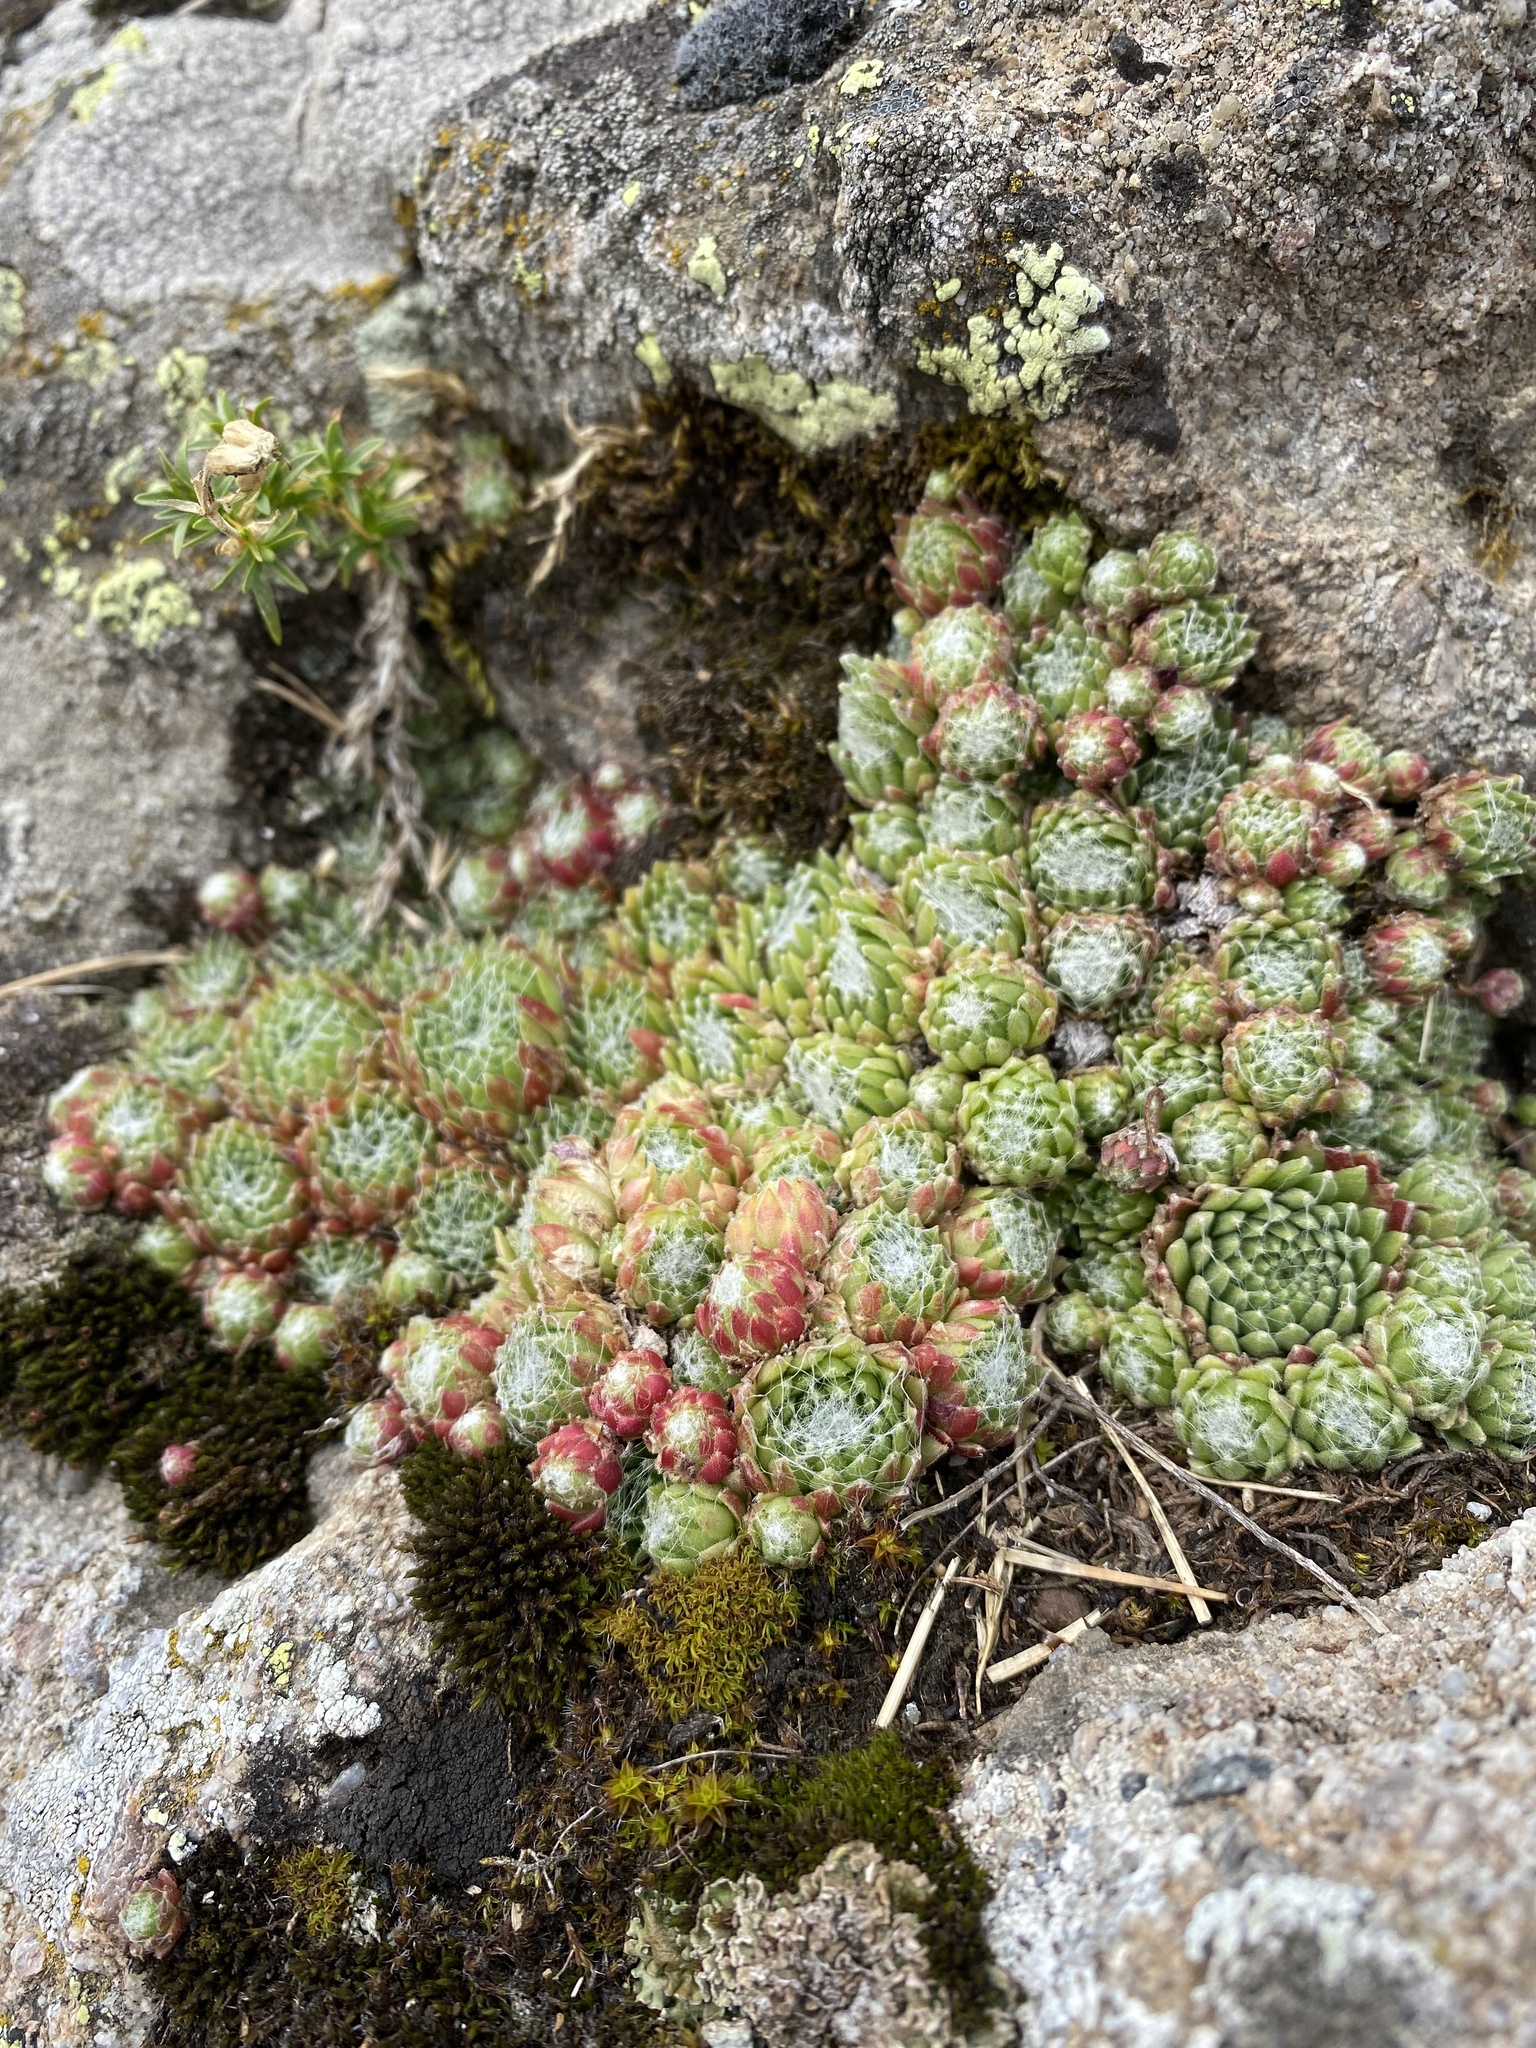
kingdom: Plantae
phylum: Tracheophyta
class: Magnoliopsida
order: Saxifragales
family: Crassulaceae
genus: Sempervivum
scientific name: Sempervivum arachnoideum
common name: Cobweb house-leek
